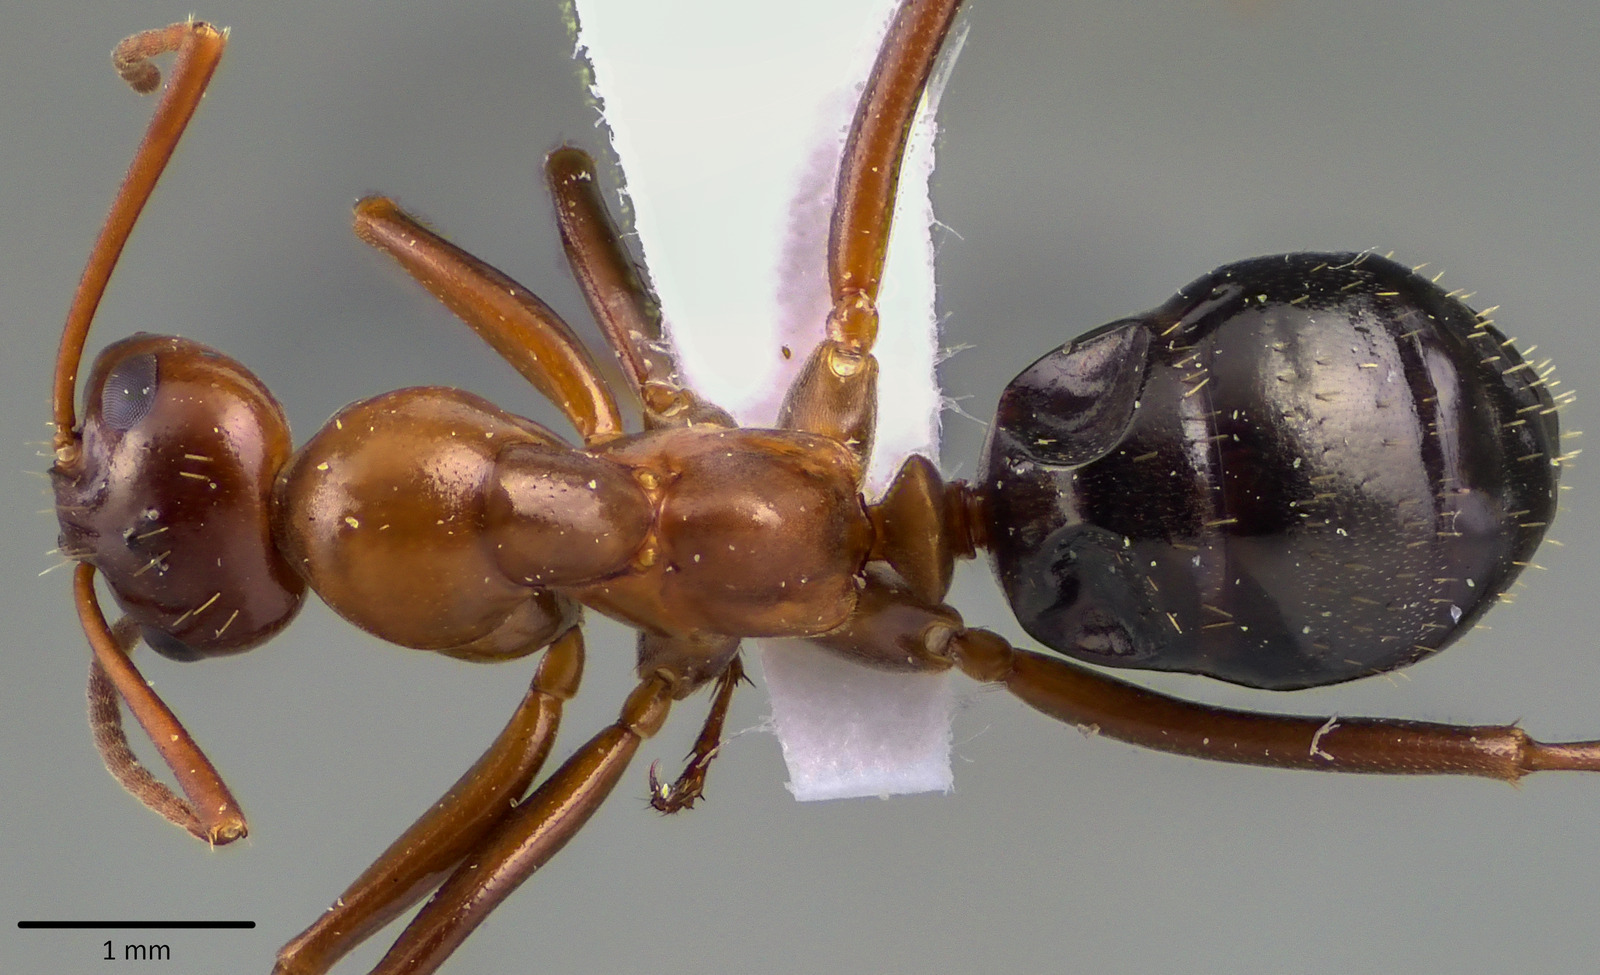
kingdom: Animalia
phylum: Arthropoda
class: Insecta
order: Hymenoptera
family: Formicidae
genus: Formica
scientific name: Formica pallidefulva
